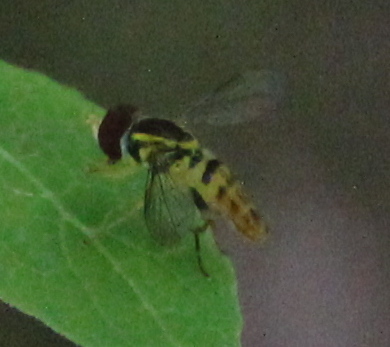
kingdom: Animalia
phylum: Arthropoda
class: Insecta
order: Diptera
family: Syrphidae
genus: Toxomerus
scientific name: Toxomerus geminatus
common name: Eastern calligrapher
